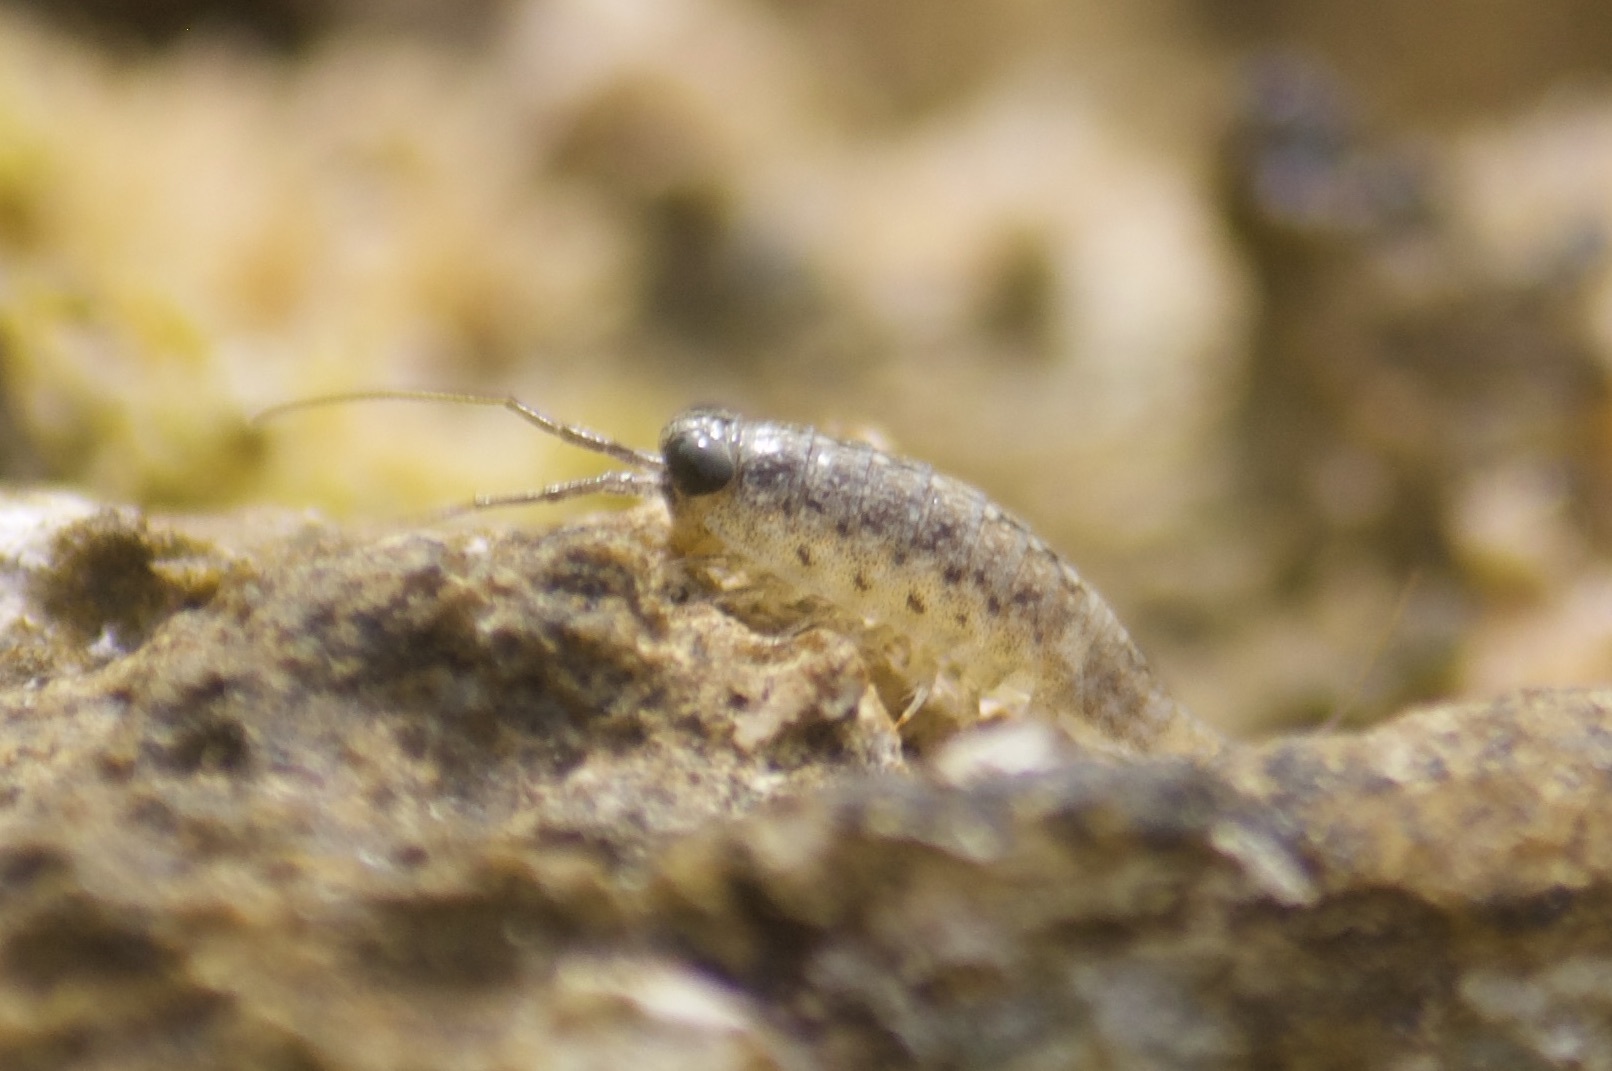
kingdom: Animalia
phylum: Arthropoda
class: Malacostraca
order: Isopoda
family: Ligiidae
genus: Ligia
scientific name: Ligia exotica
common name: Wharf roach
